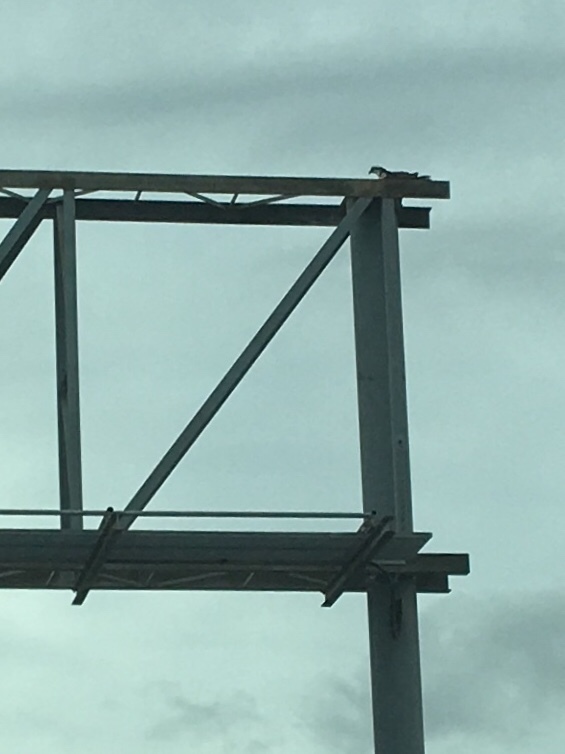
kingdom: Animalia
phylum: Chordata
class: Aves
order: Accipitriformes
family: Pandionidae
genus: Pandion
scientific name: Pandion haliaetus
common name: Osprey
